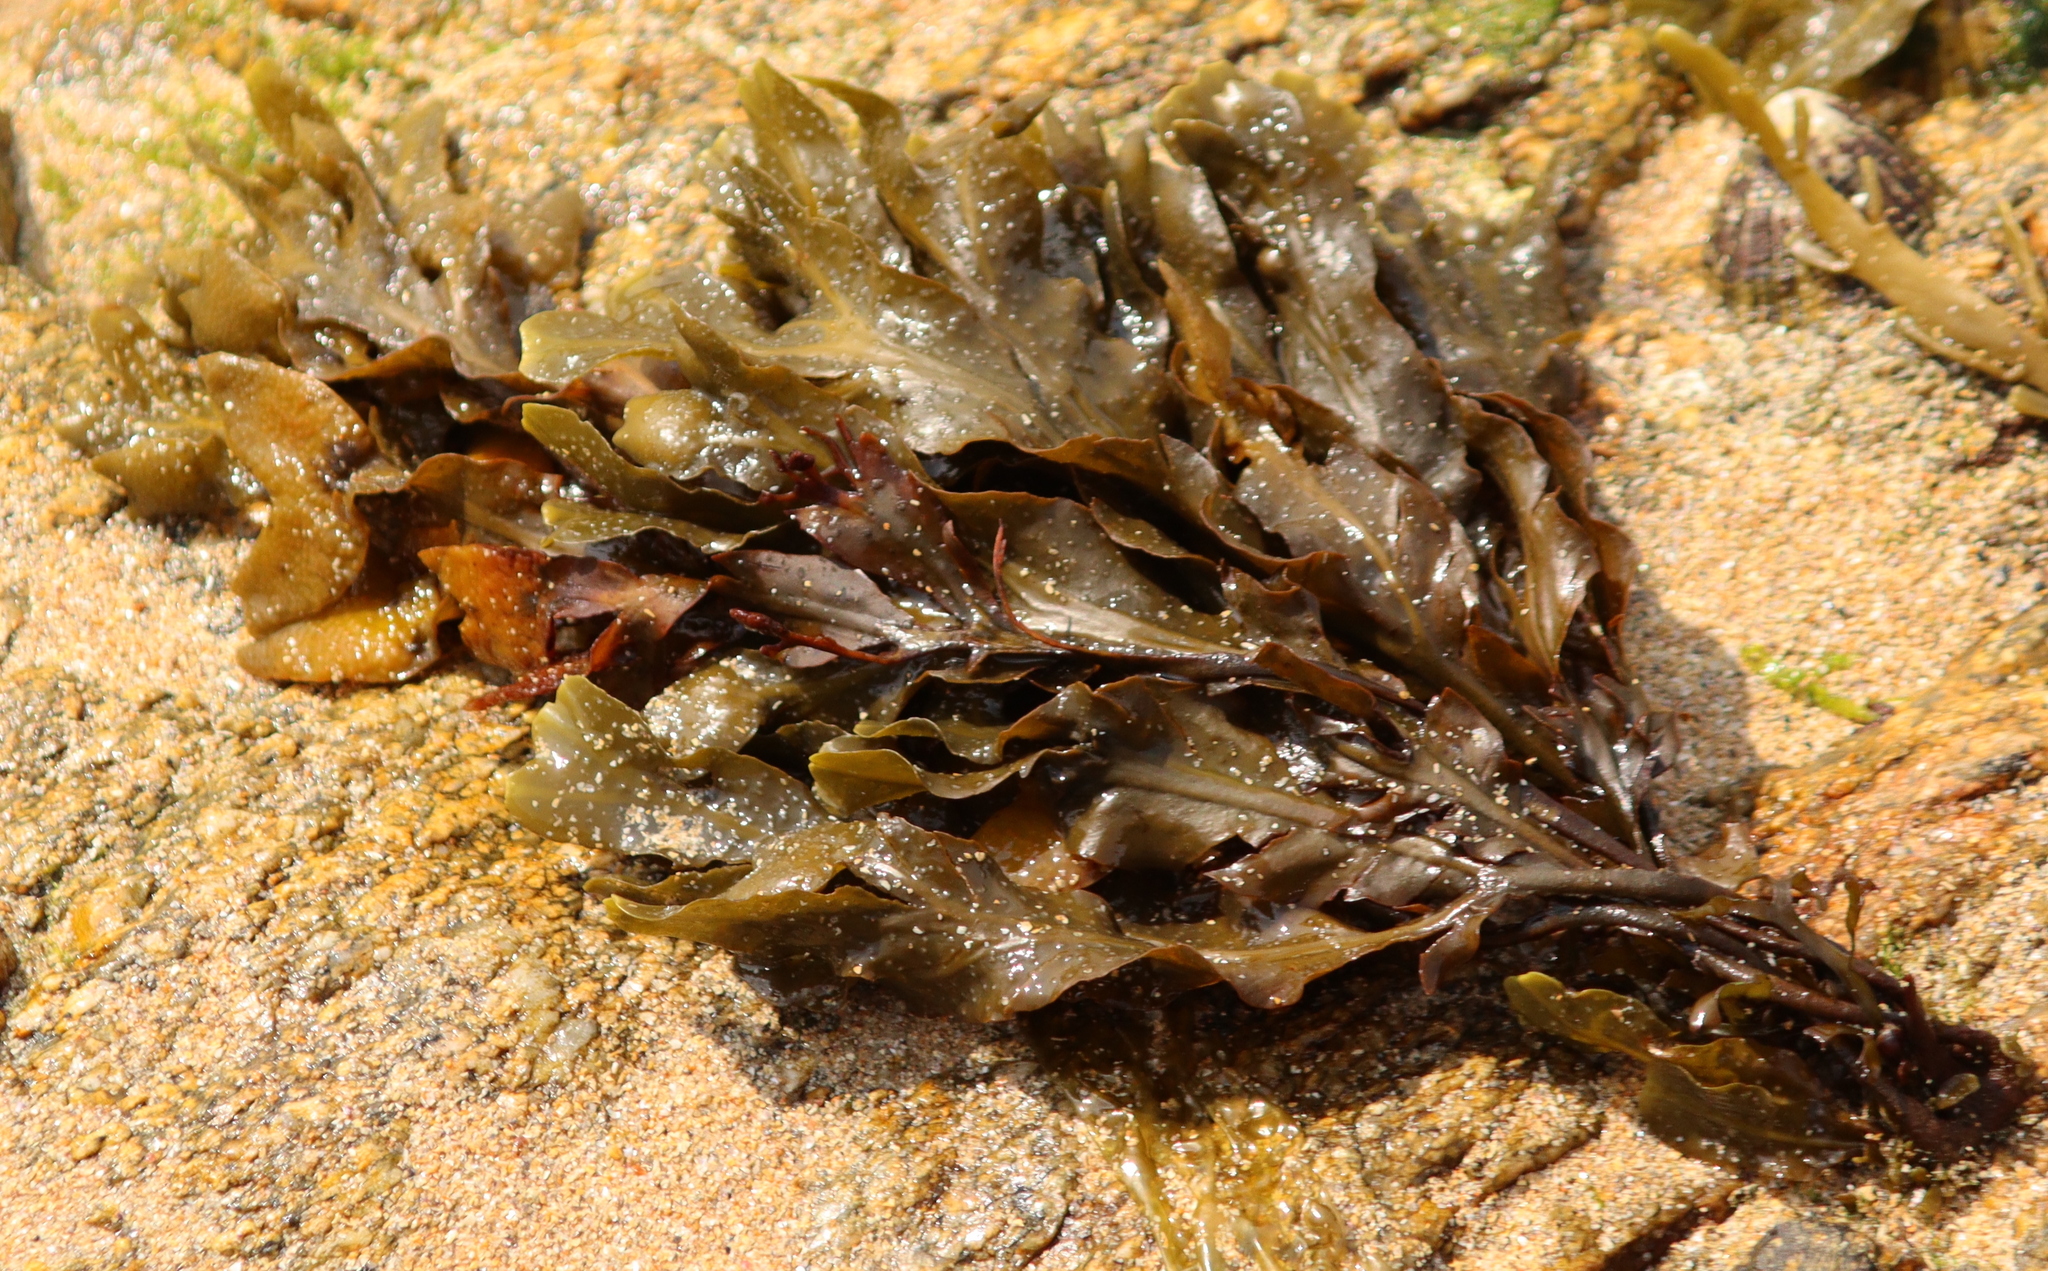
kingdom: Chromista
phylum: Ochrophyta
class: Phaeophyceae
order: Fucales
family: Fucaceae
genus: Fucus
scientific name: Fucus spiralis
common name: Spiral wrack
